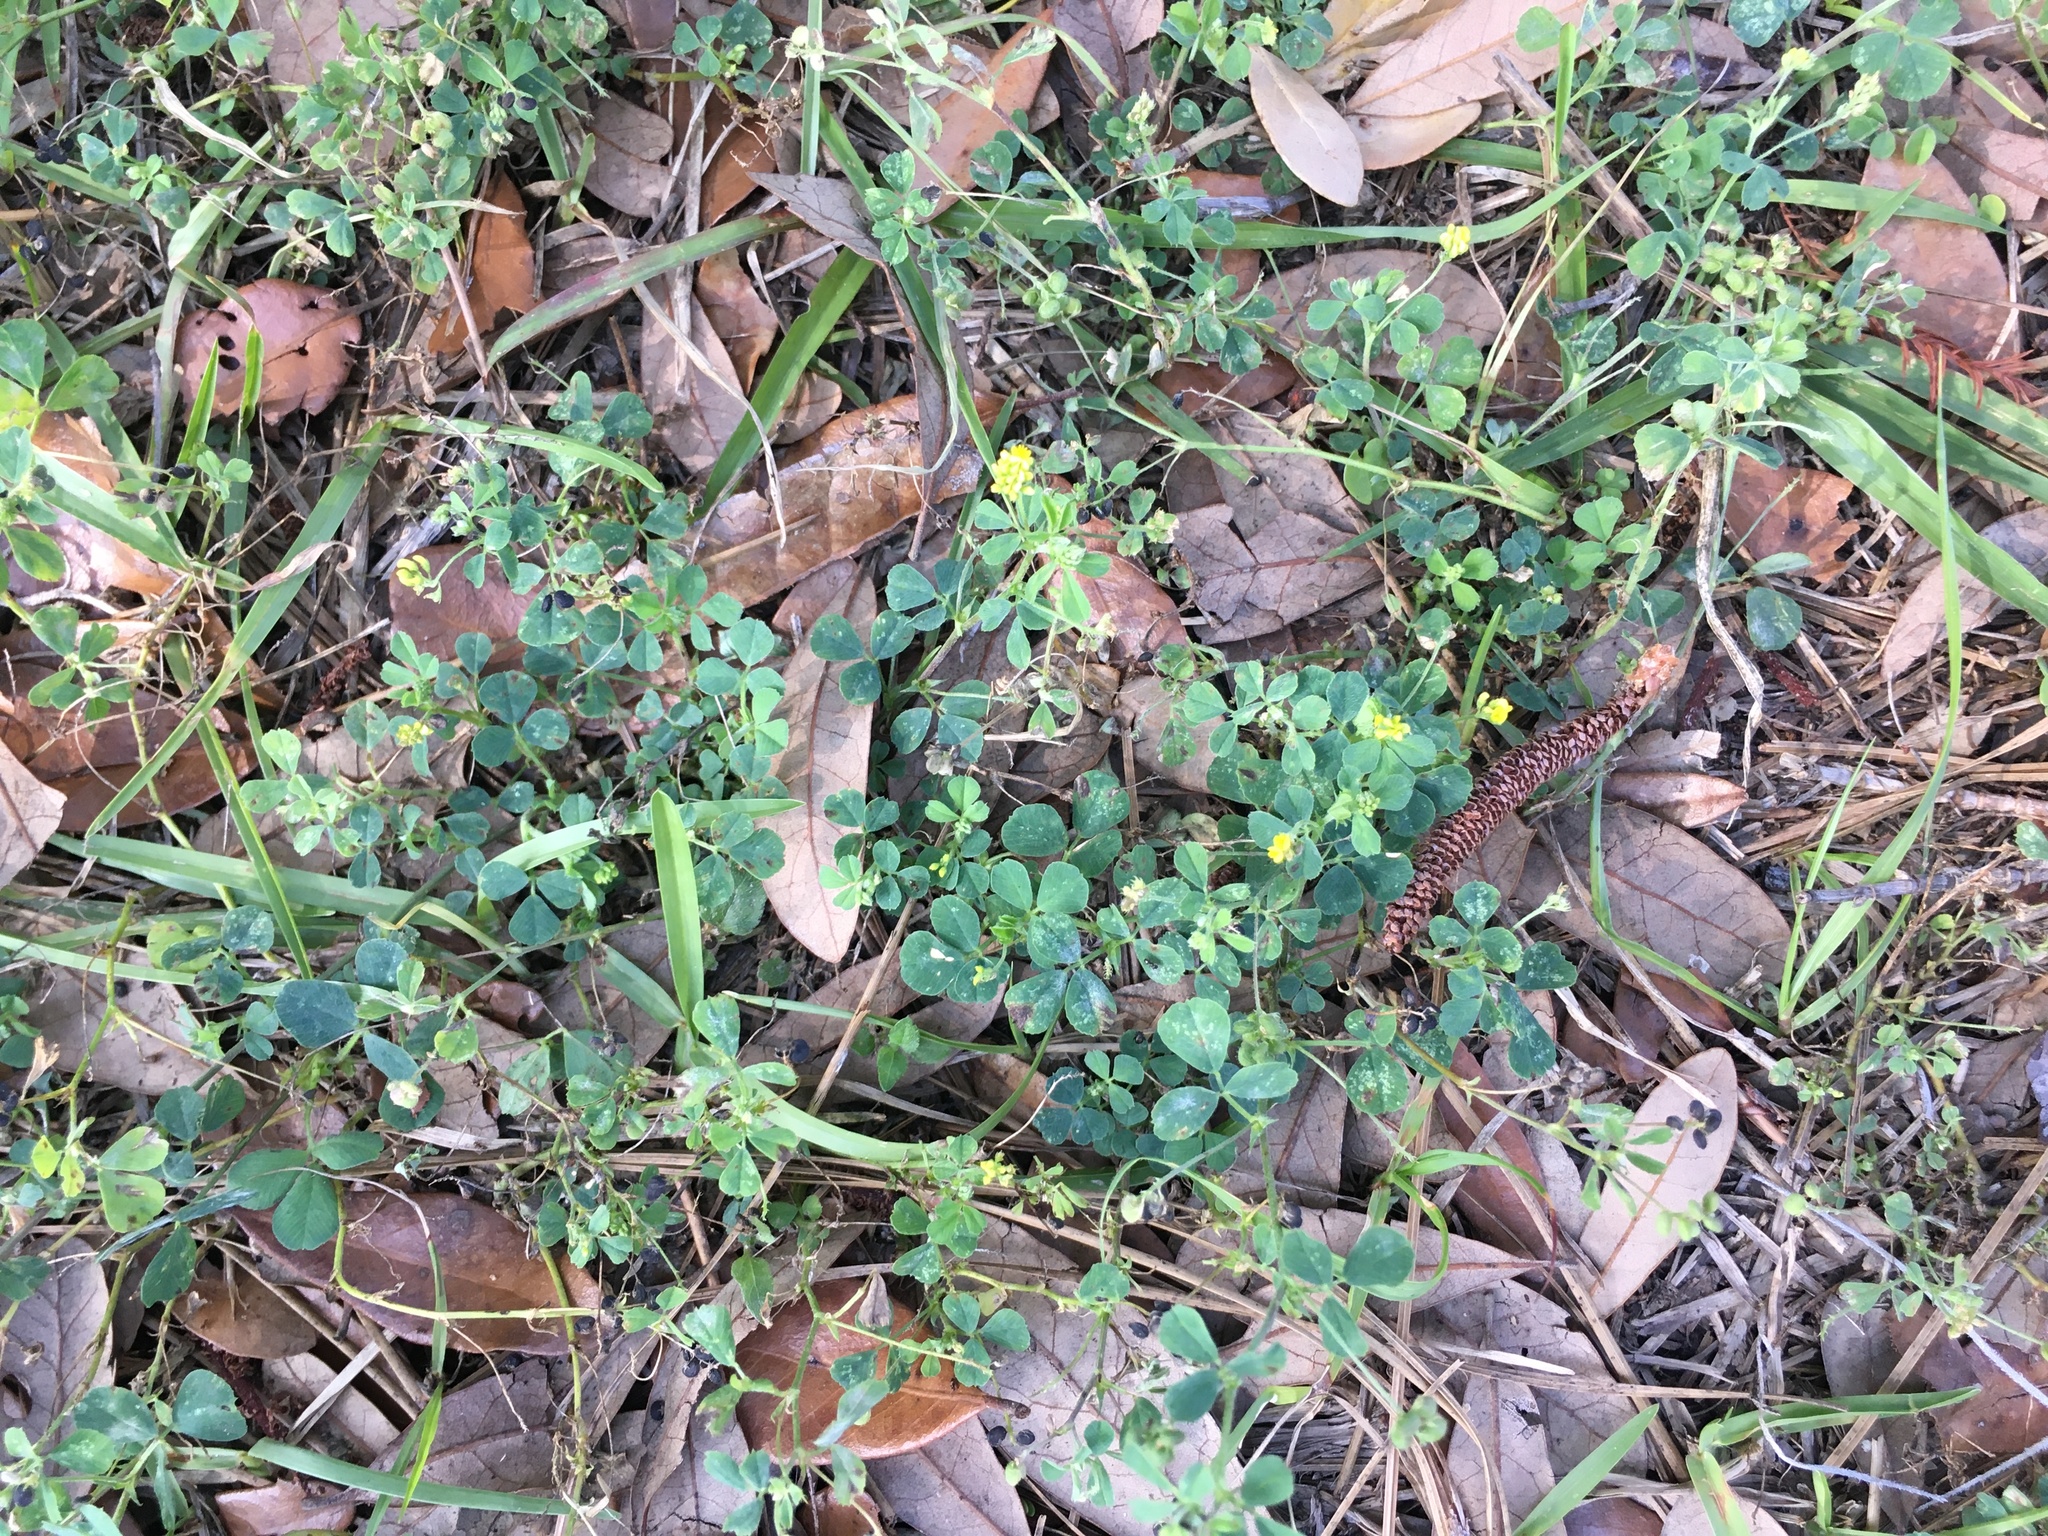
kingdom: Plantae
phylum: Tracheophyta
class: Magnoliopsida
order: Fabales
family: Fabaceae
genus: Medicago
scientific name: Medicago lupulina
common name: Black medick
